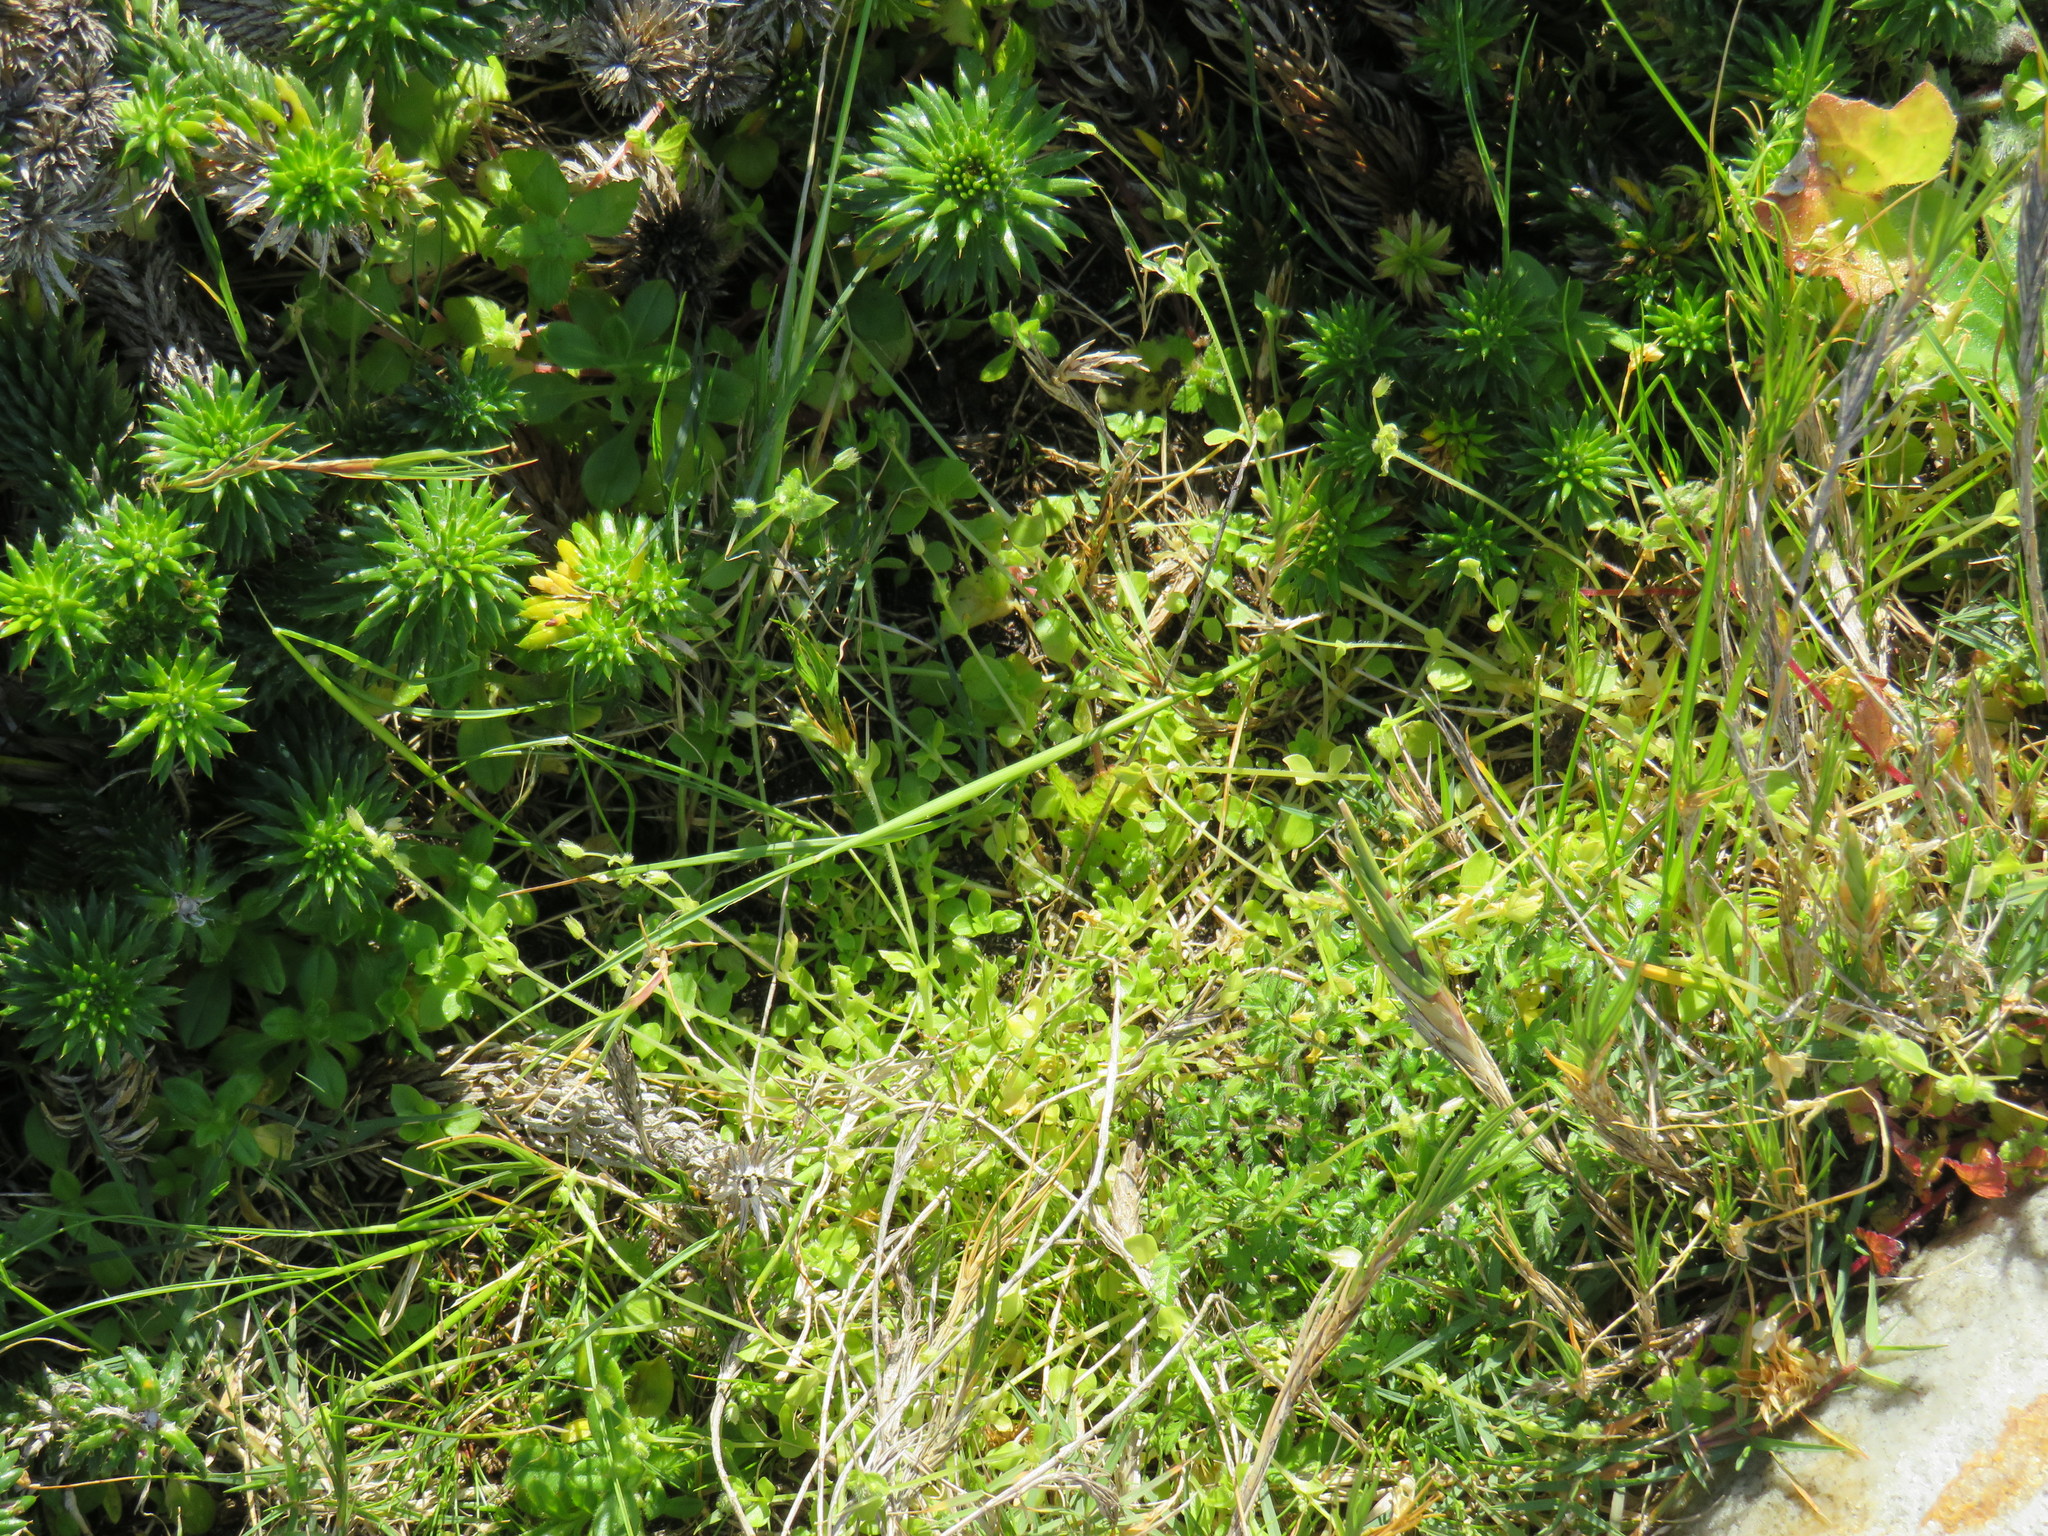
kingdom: Plantae
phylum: Tracheophyta
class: Magnoliopsida
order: Caryophyllales
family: Caryophyllaceae
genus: Stellaria
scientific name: Stellaria media
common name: Common chickweed
